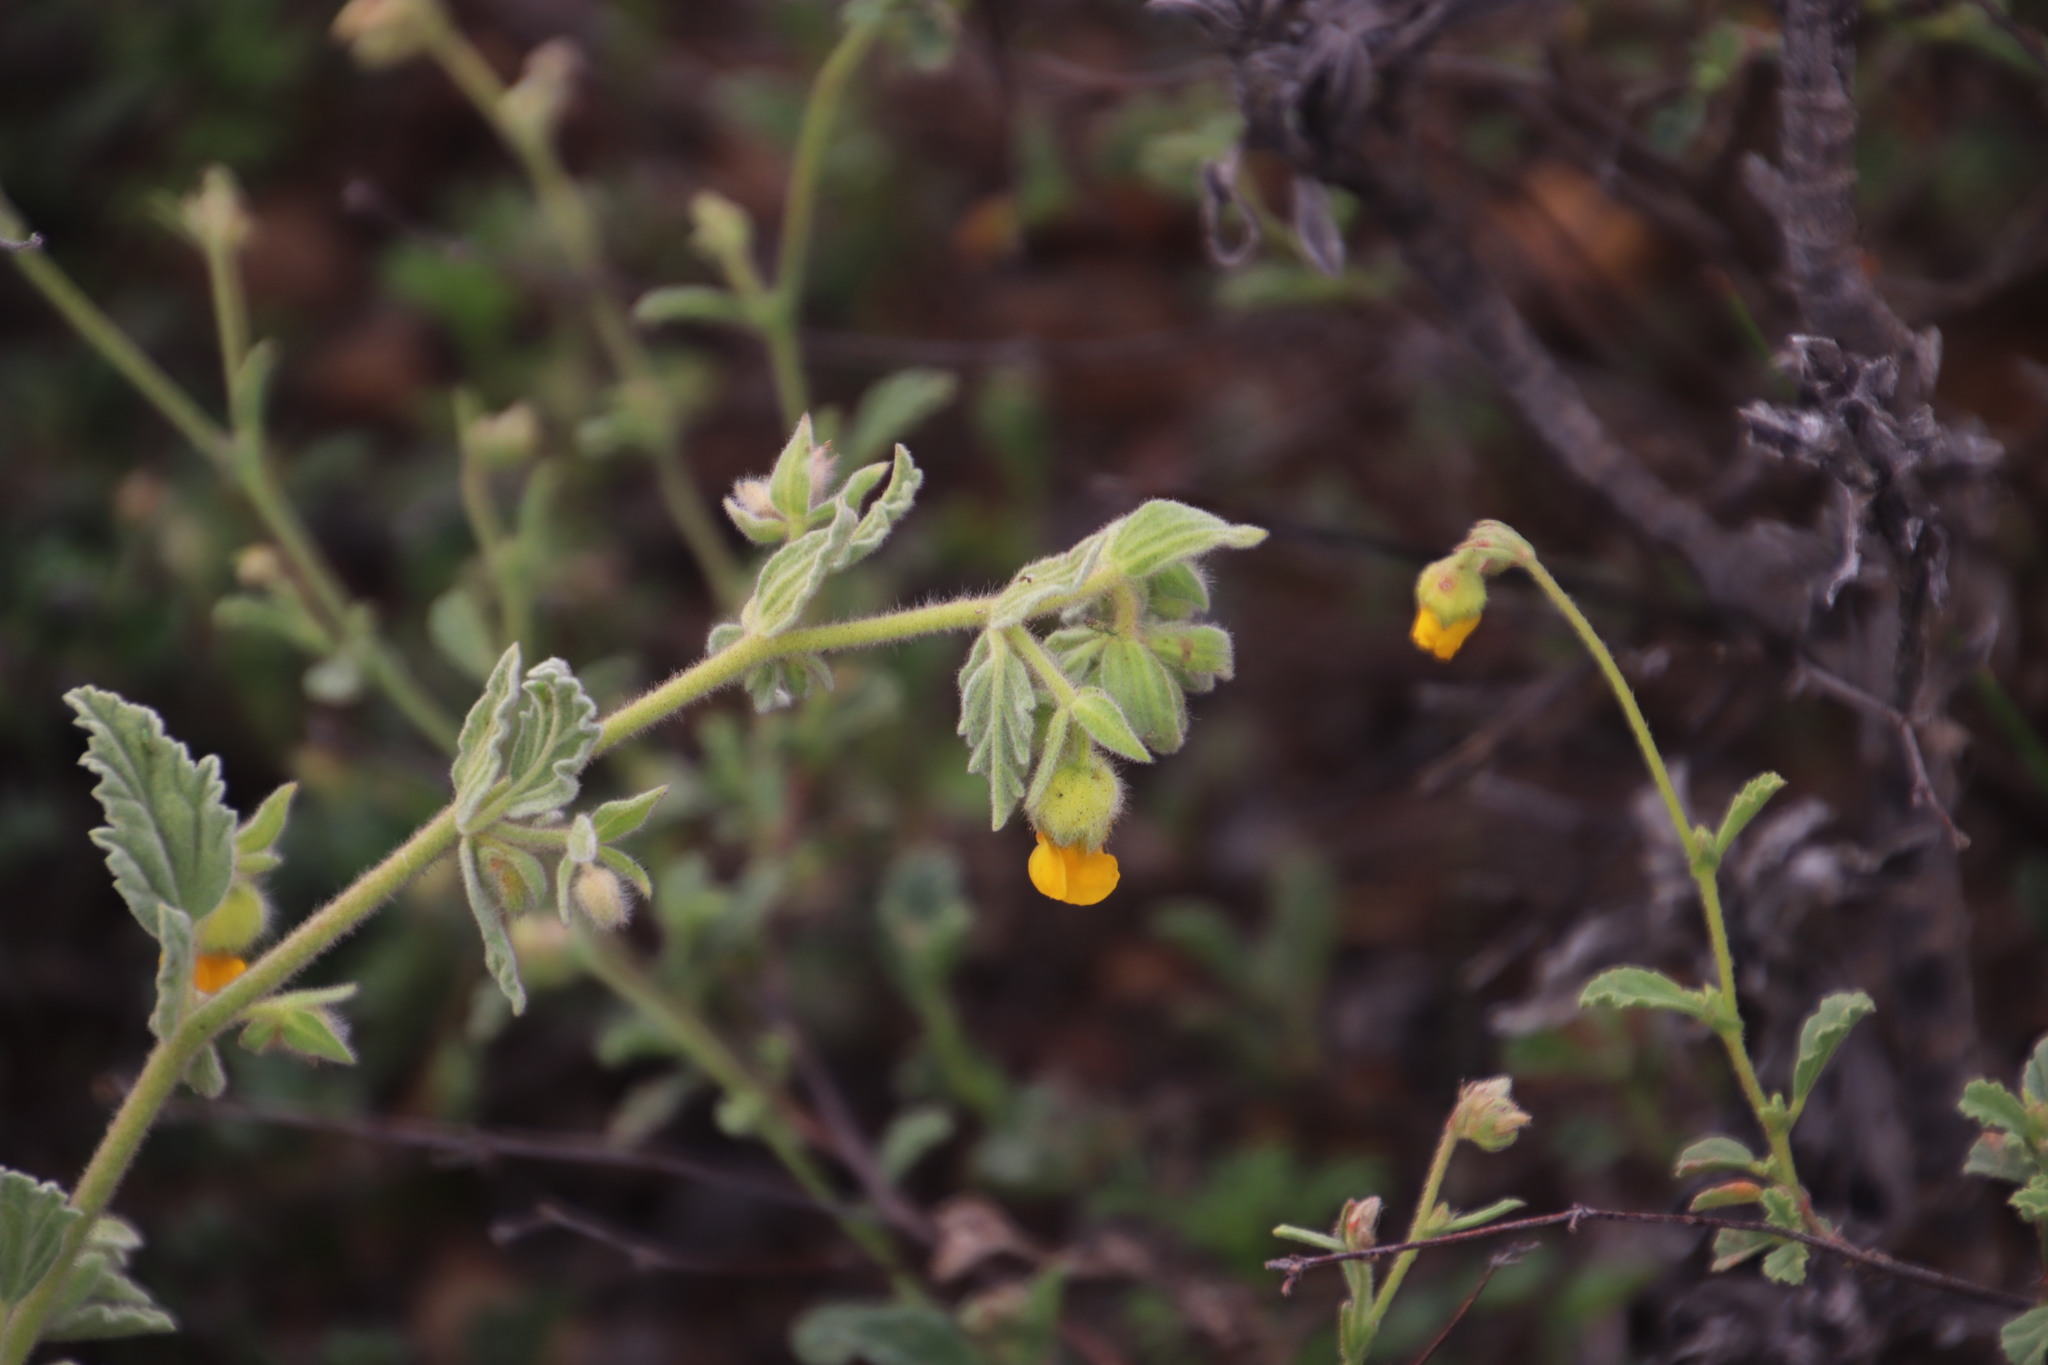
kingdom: Plantae
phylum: Tracheophyta
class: Magnoliopsida
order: Malvales
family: Malvaceae
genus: Hermannia
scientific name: Hermannia althaeifolia
